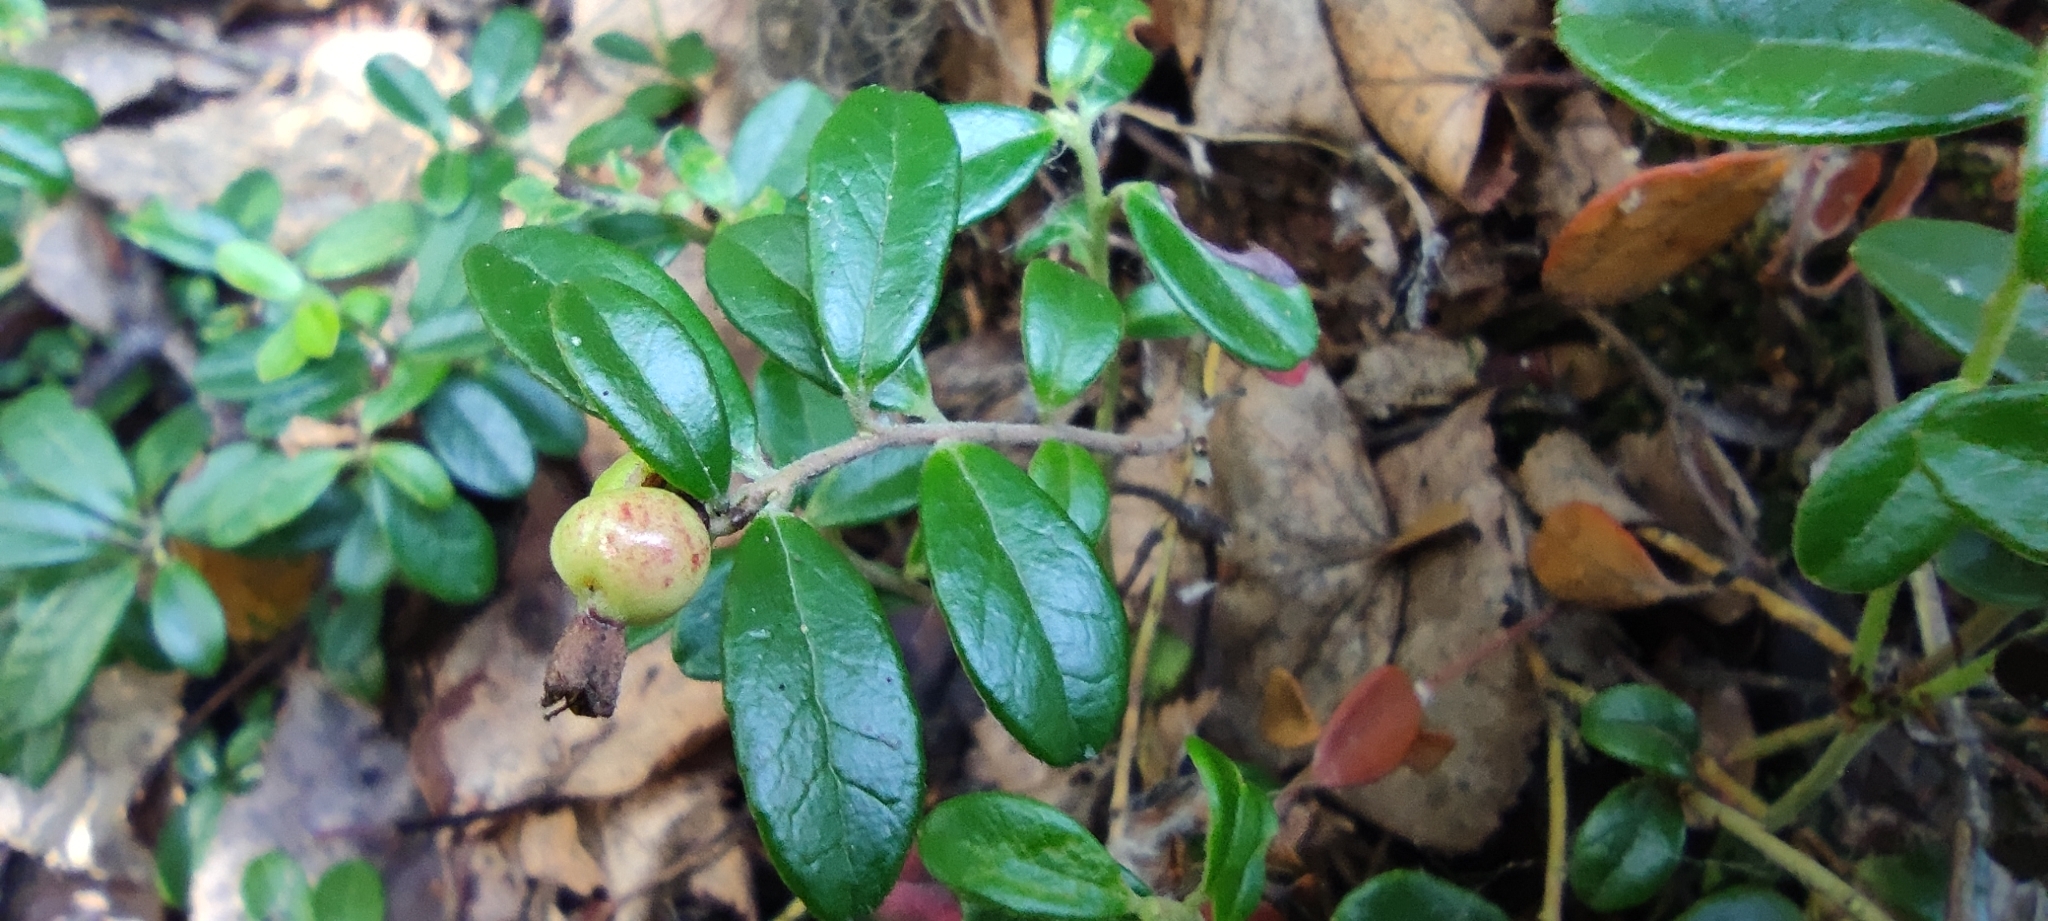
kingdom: Plantae
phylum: Tracheophyta
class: Magnoliopsida
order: Ericales
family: Ericaceae
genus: Vaccinium
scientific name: Vaccinium vitis-idaea
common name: Cowberry
